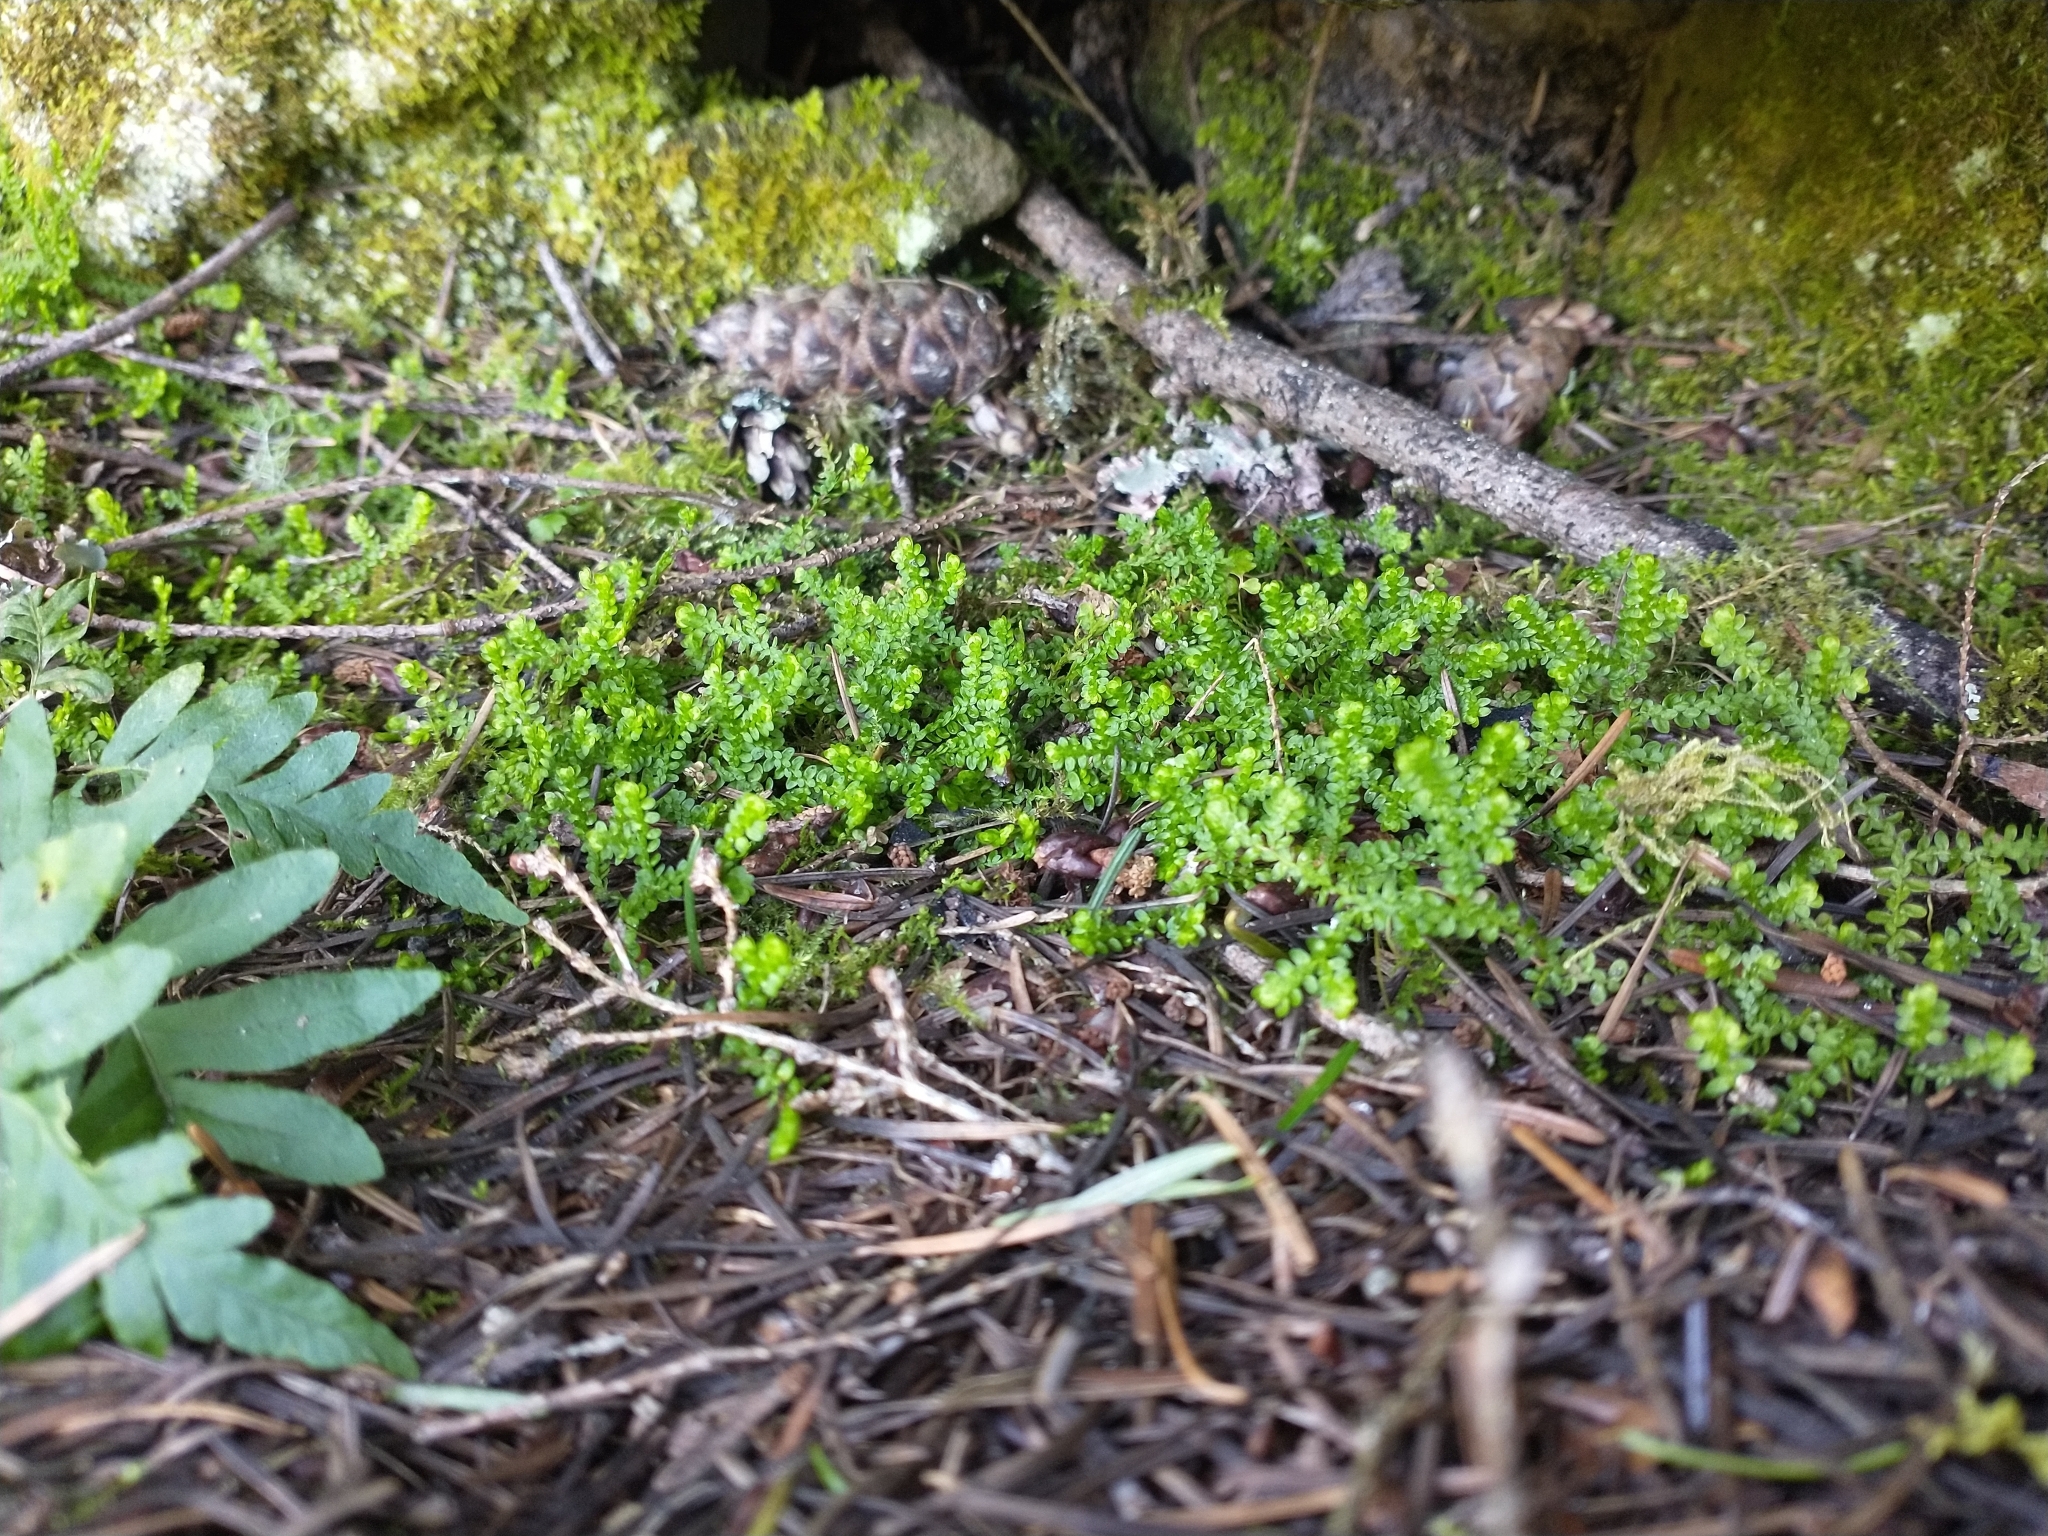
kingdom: Plantae
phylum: Tracheophyta
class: Lycopodiopsida
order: Selaginellales
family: Selaginellaceae
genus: Selaginella
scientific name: Selaginella douglasii
